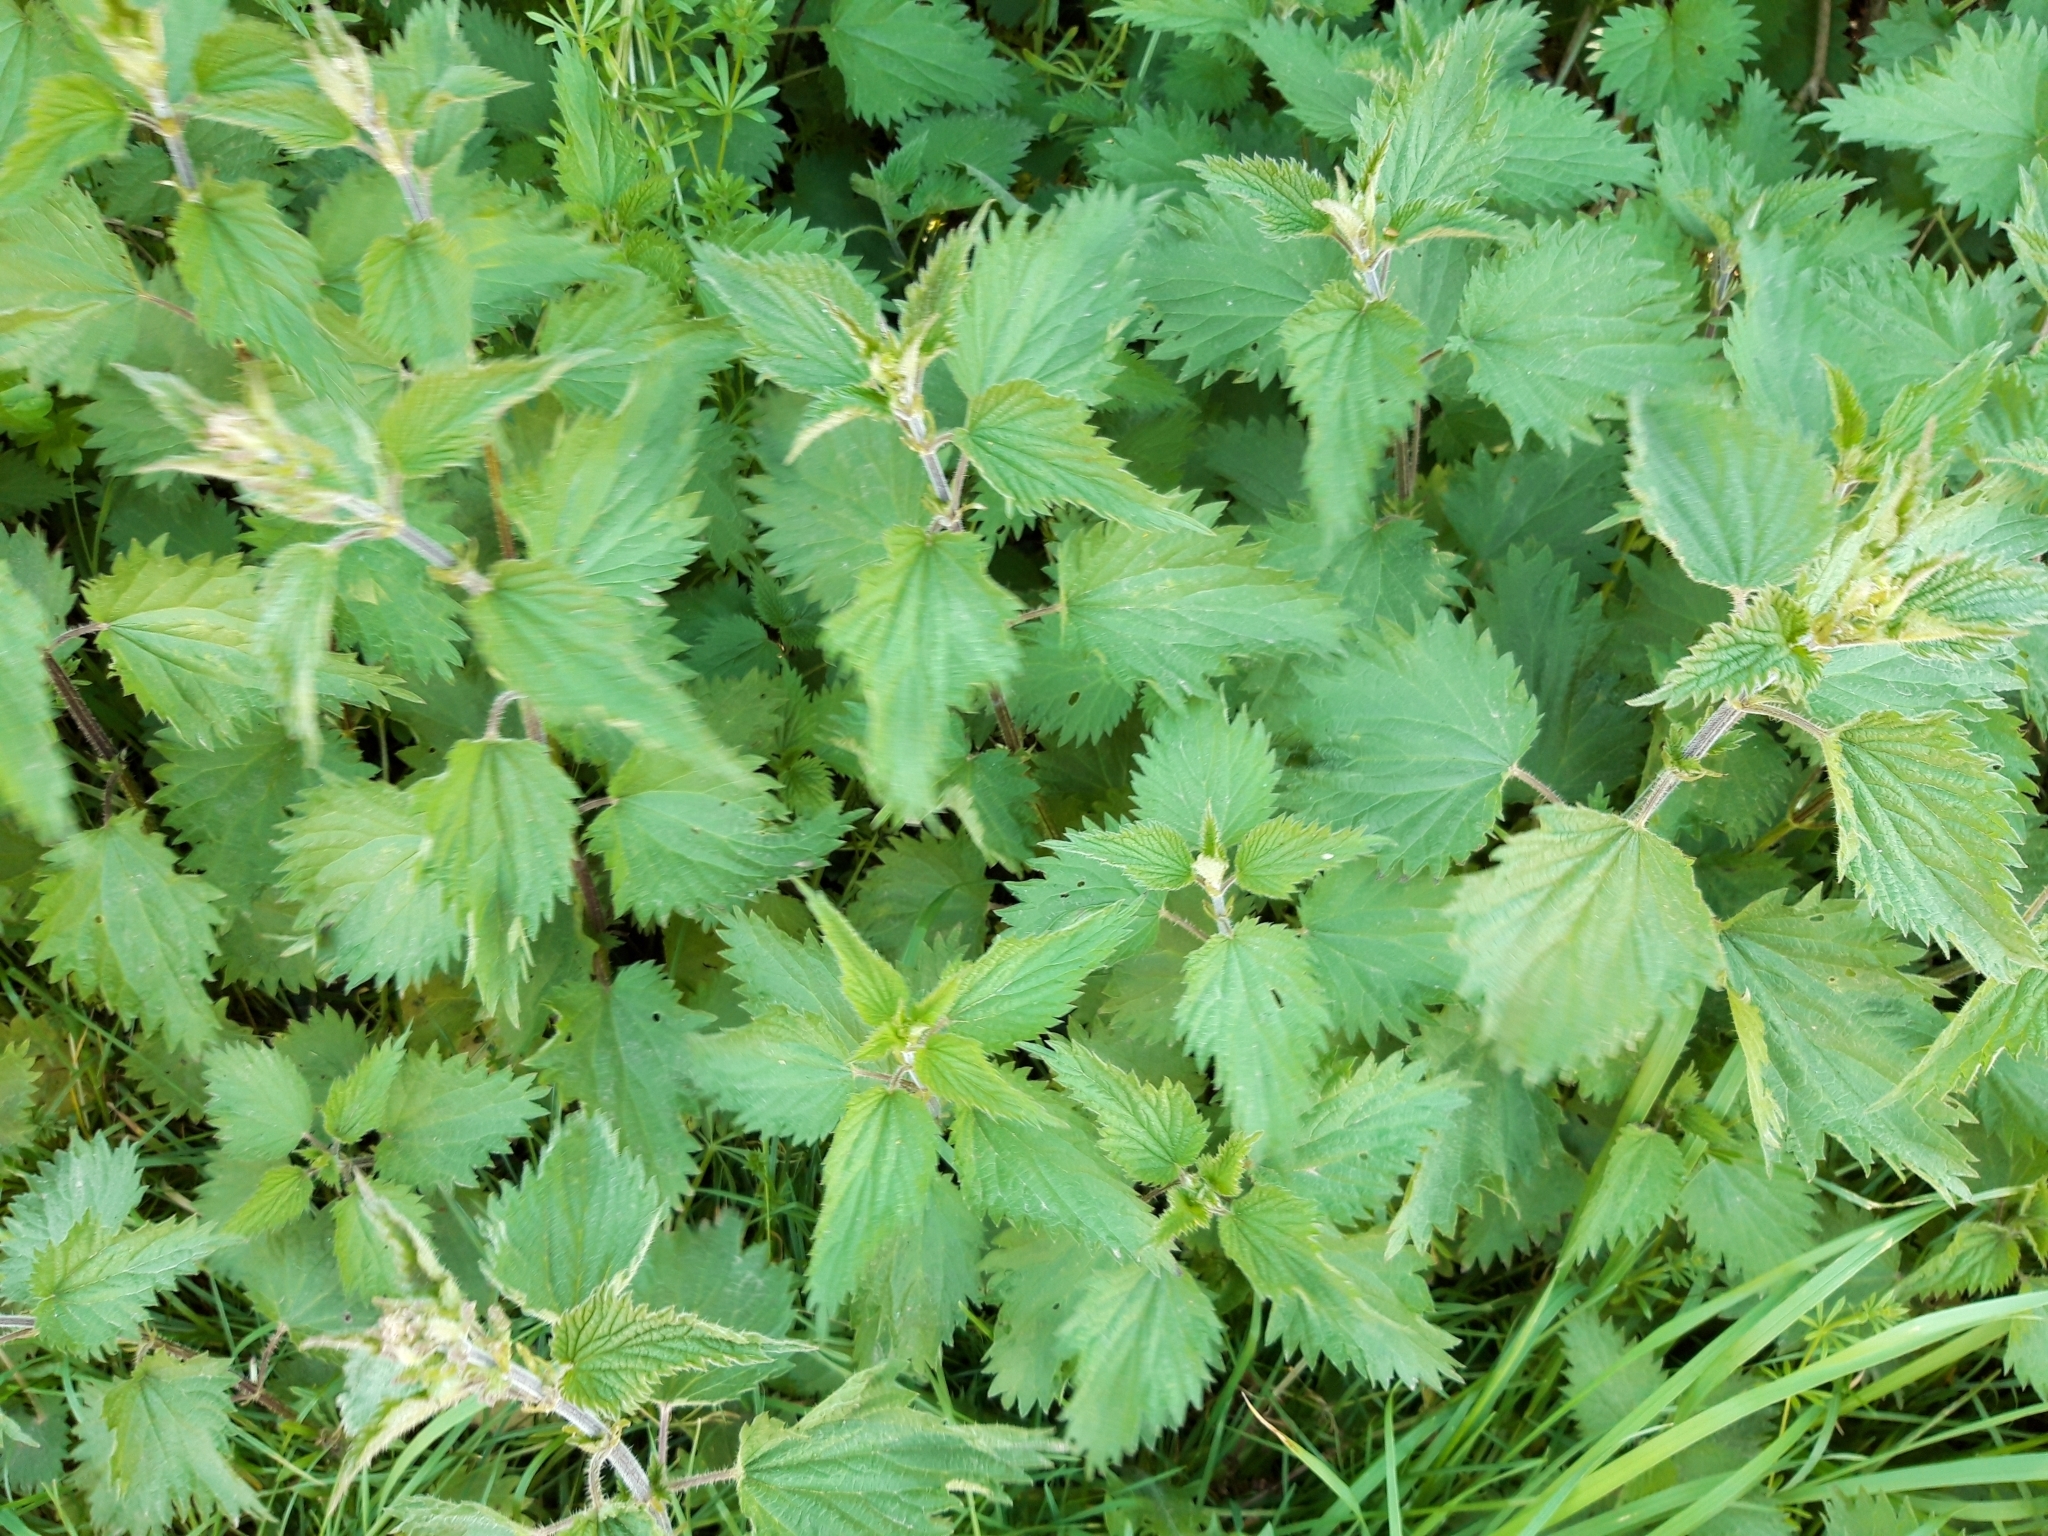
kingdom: Plantae
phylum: Tracheophyta
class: Magnoliopsida
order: Rosales
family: Urticaceae
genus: Urtica
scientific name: Urtica dioica
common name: Common nettle
